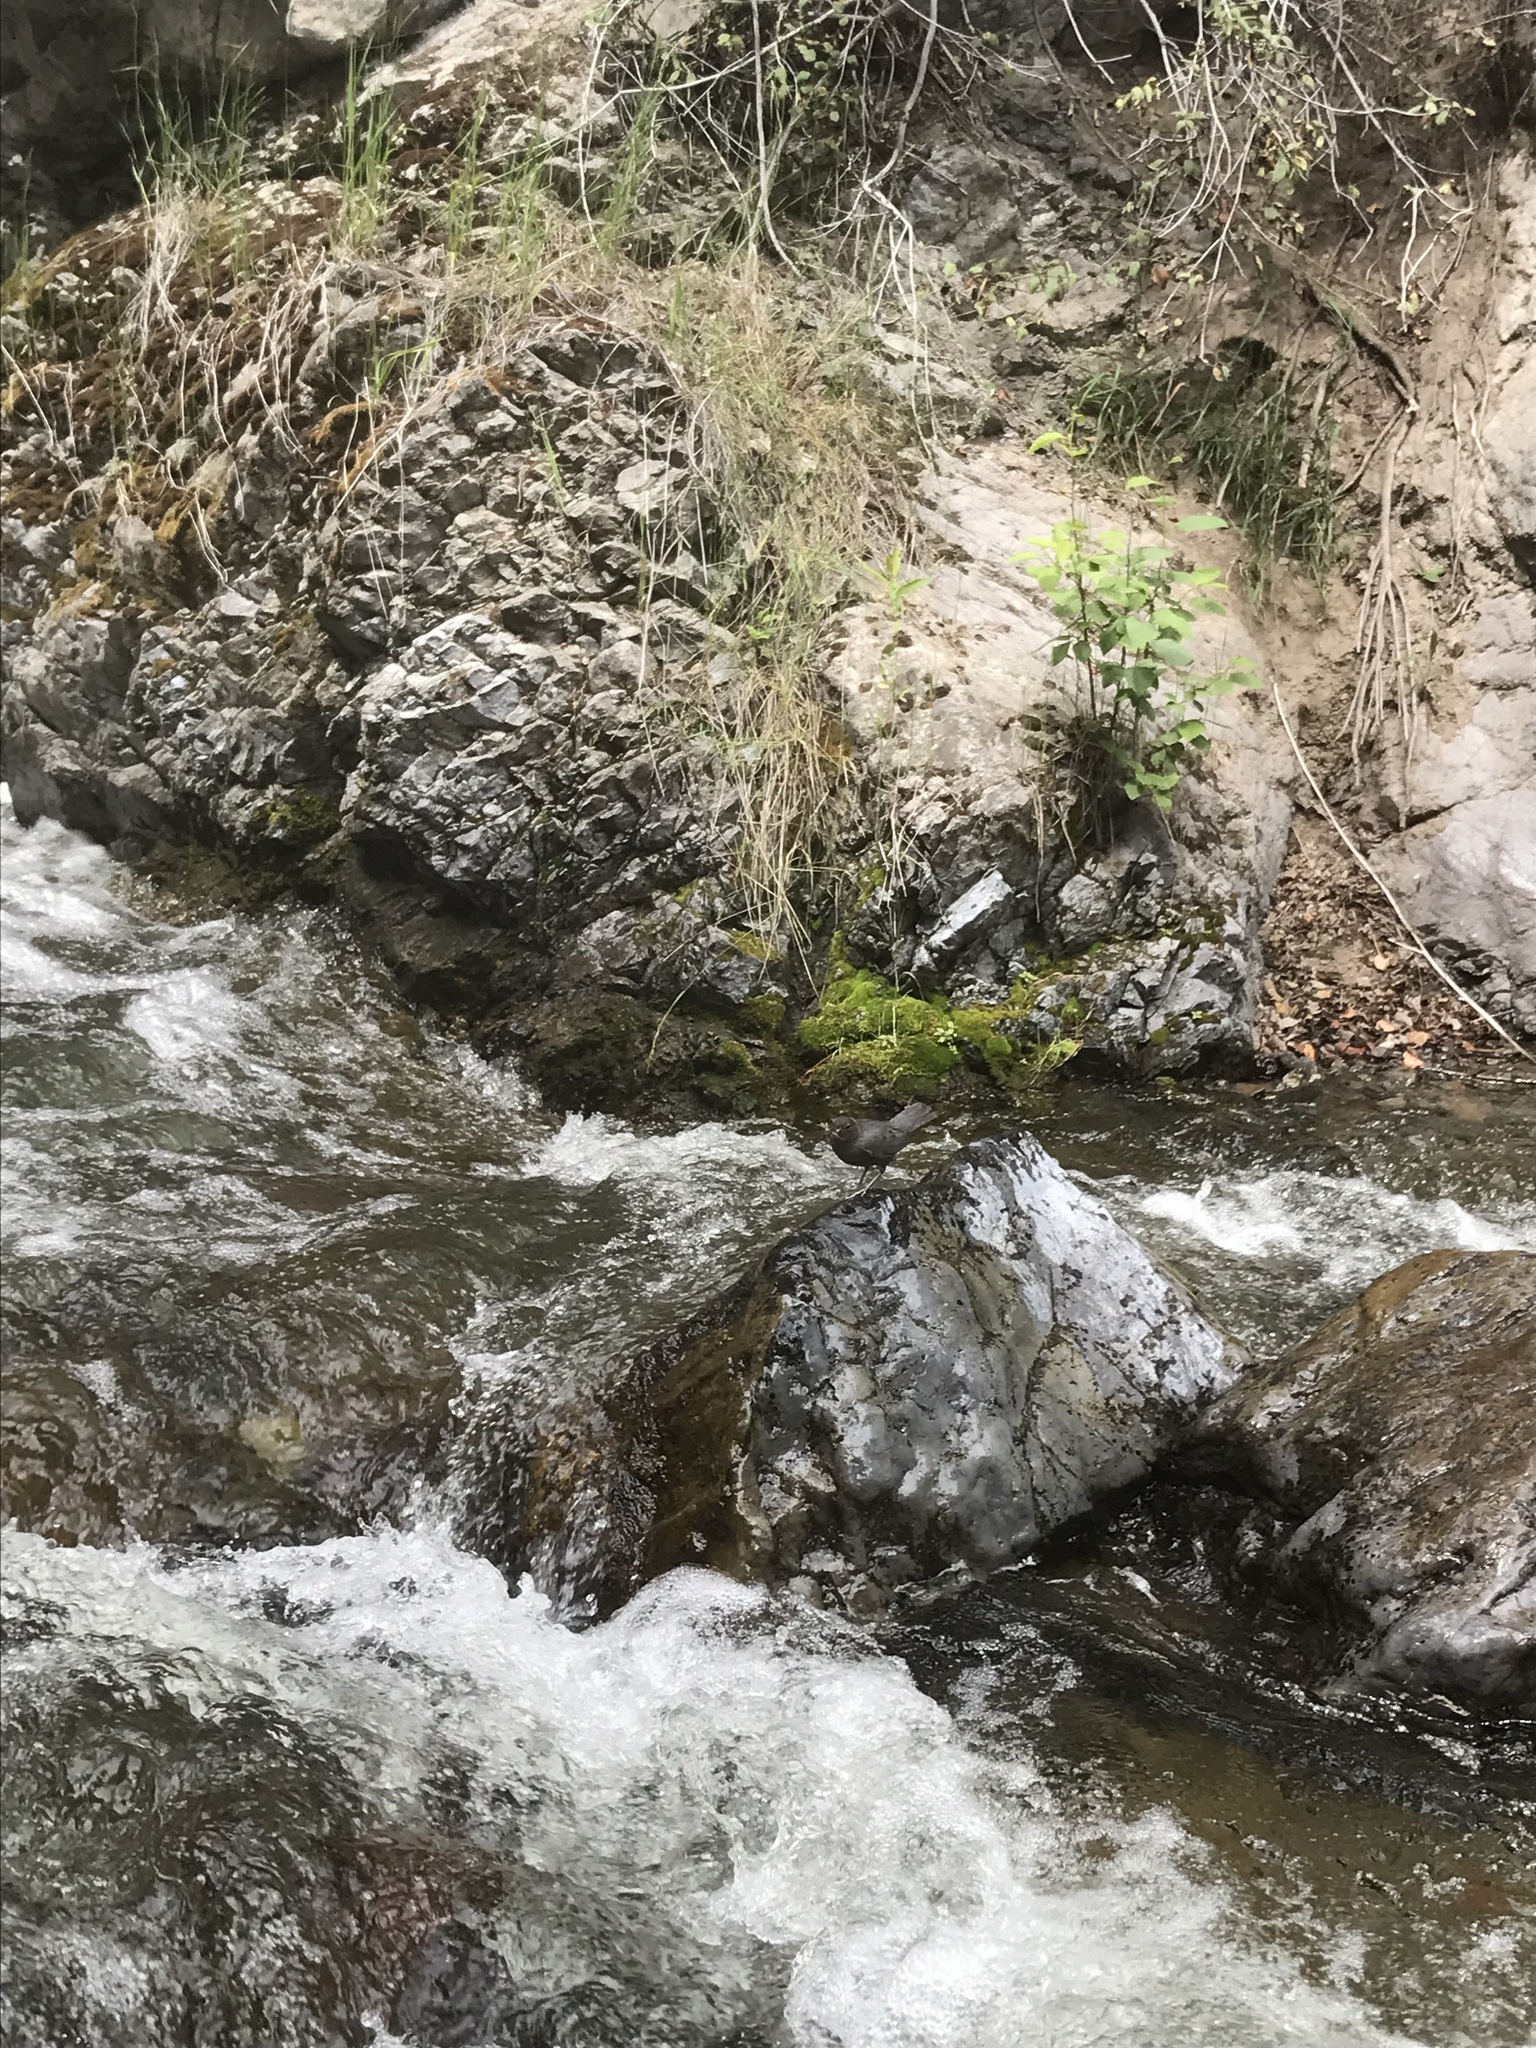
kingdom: Animalia
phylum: Chordata
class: Aves
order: Passeriformes
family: Cinclidae
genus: Cinclus
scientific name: Cinclus mexicanus
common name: American dipper
